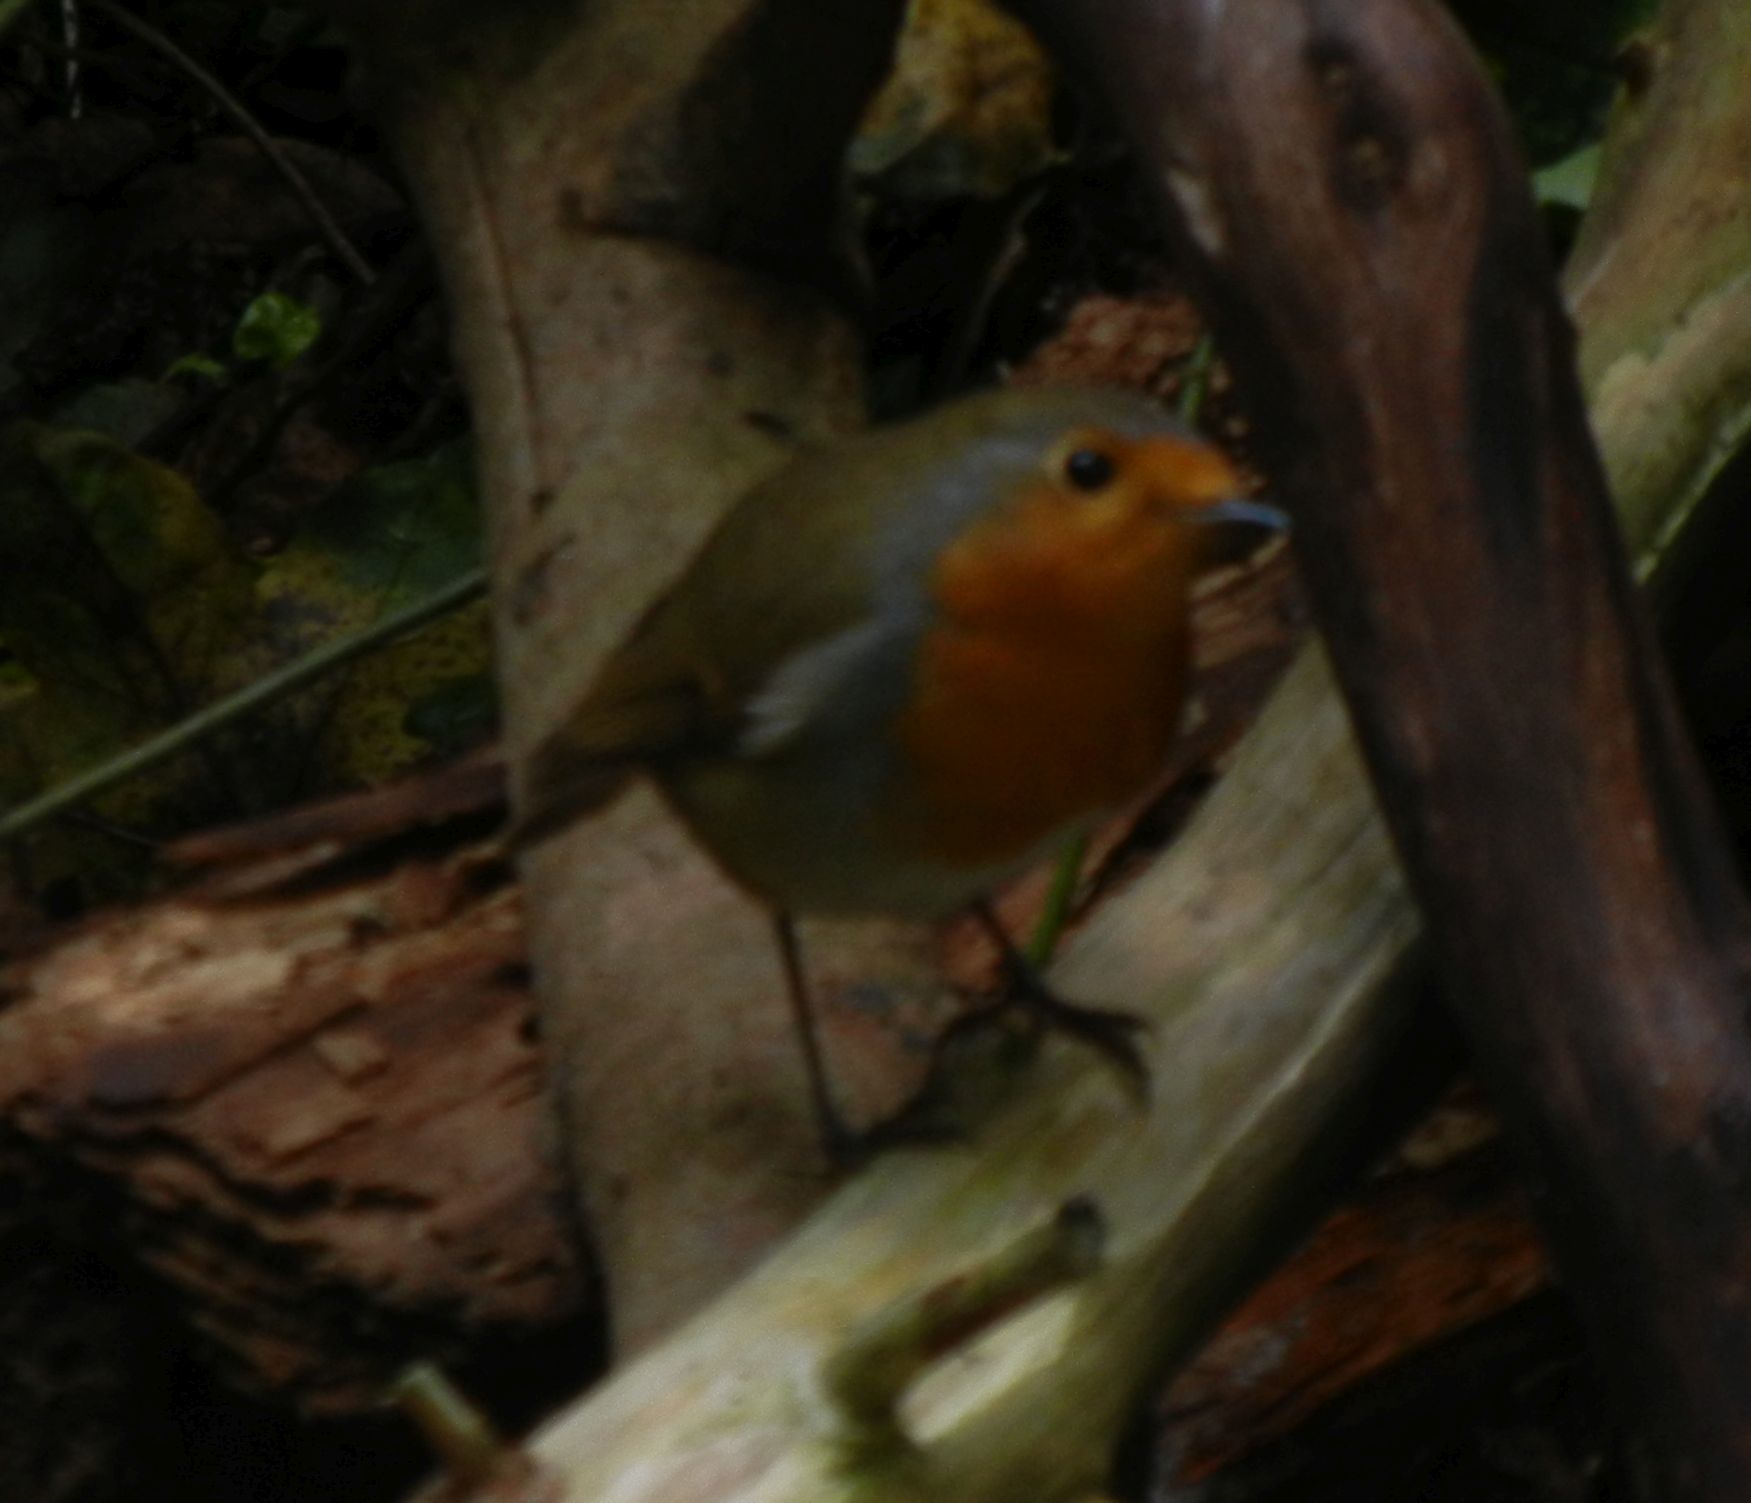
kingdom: Animalia
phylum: Chordata
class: Aves
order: Passeriformes
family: Muscicapidae
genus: Erithacus
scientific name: Erithacus rubecula
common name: European robin
